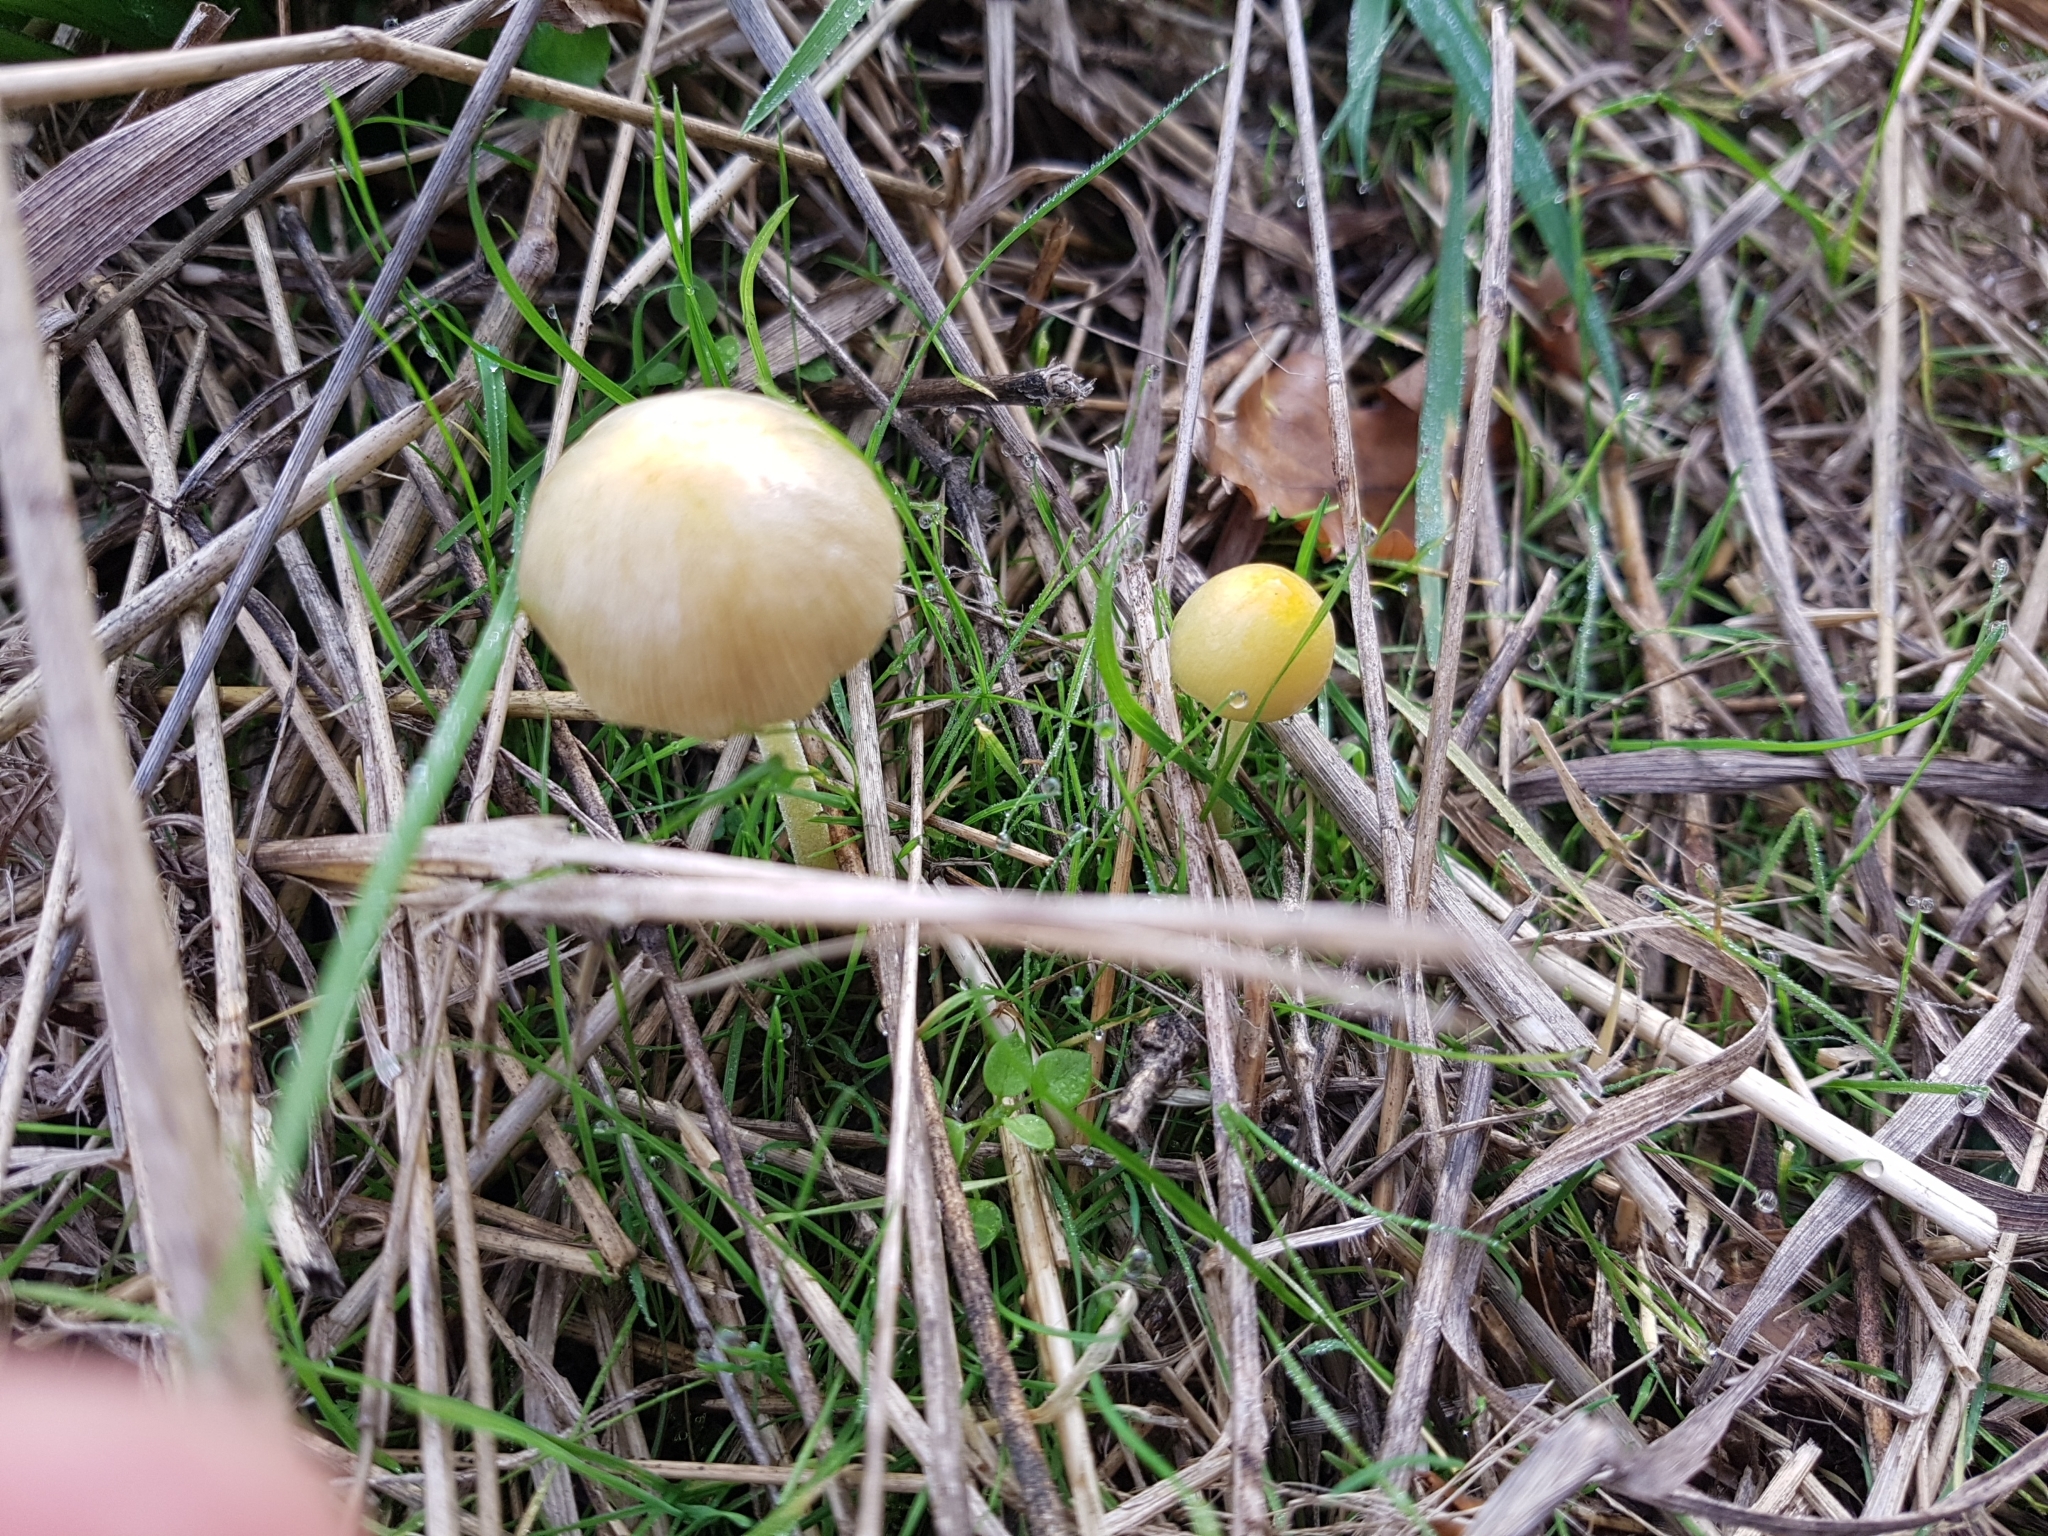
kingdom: Fungi
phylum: Basidiomycota
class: Agaricomycetes
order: Agaricales
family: Bolbitiaceae
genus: Bolbitius
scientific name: Bolbitius titubans
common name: Yellow fieldcap
